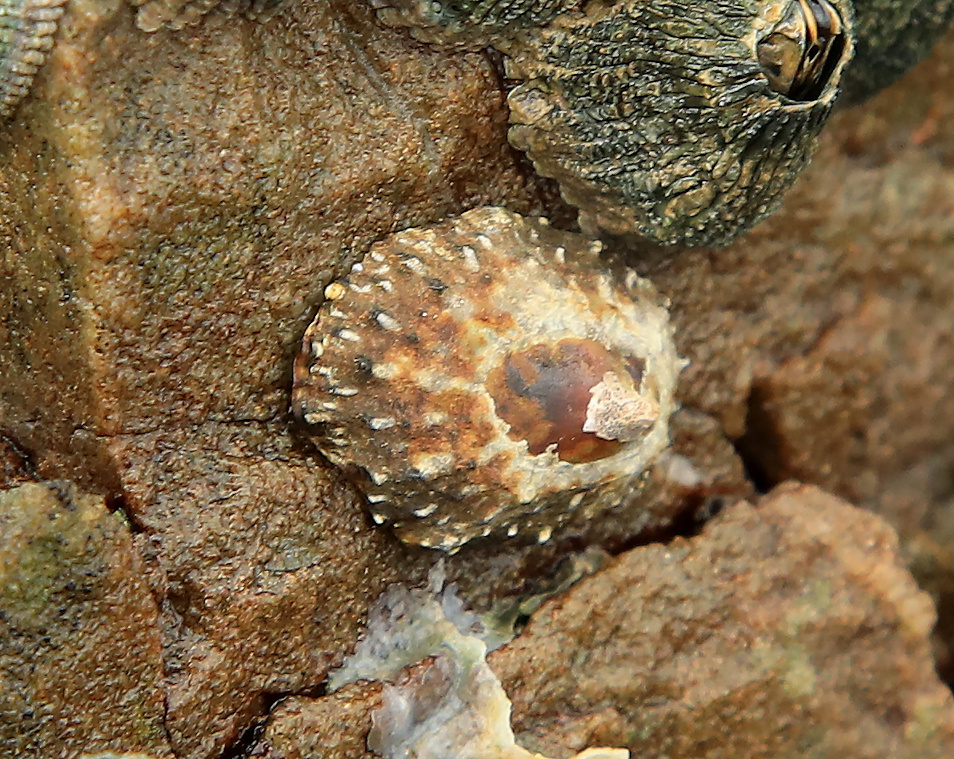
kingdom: Animalia
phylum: Mollusca
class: Gastropoda
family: Patellidae
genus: Scutellastra
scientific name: Scutellastra granularis
